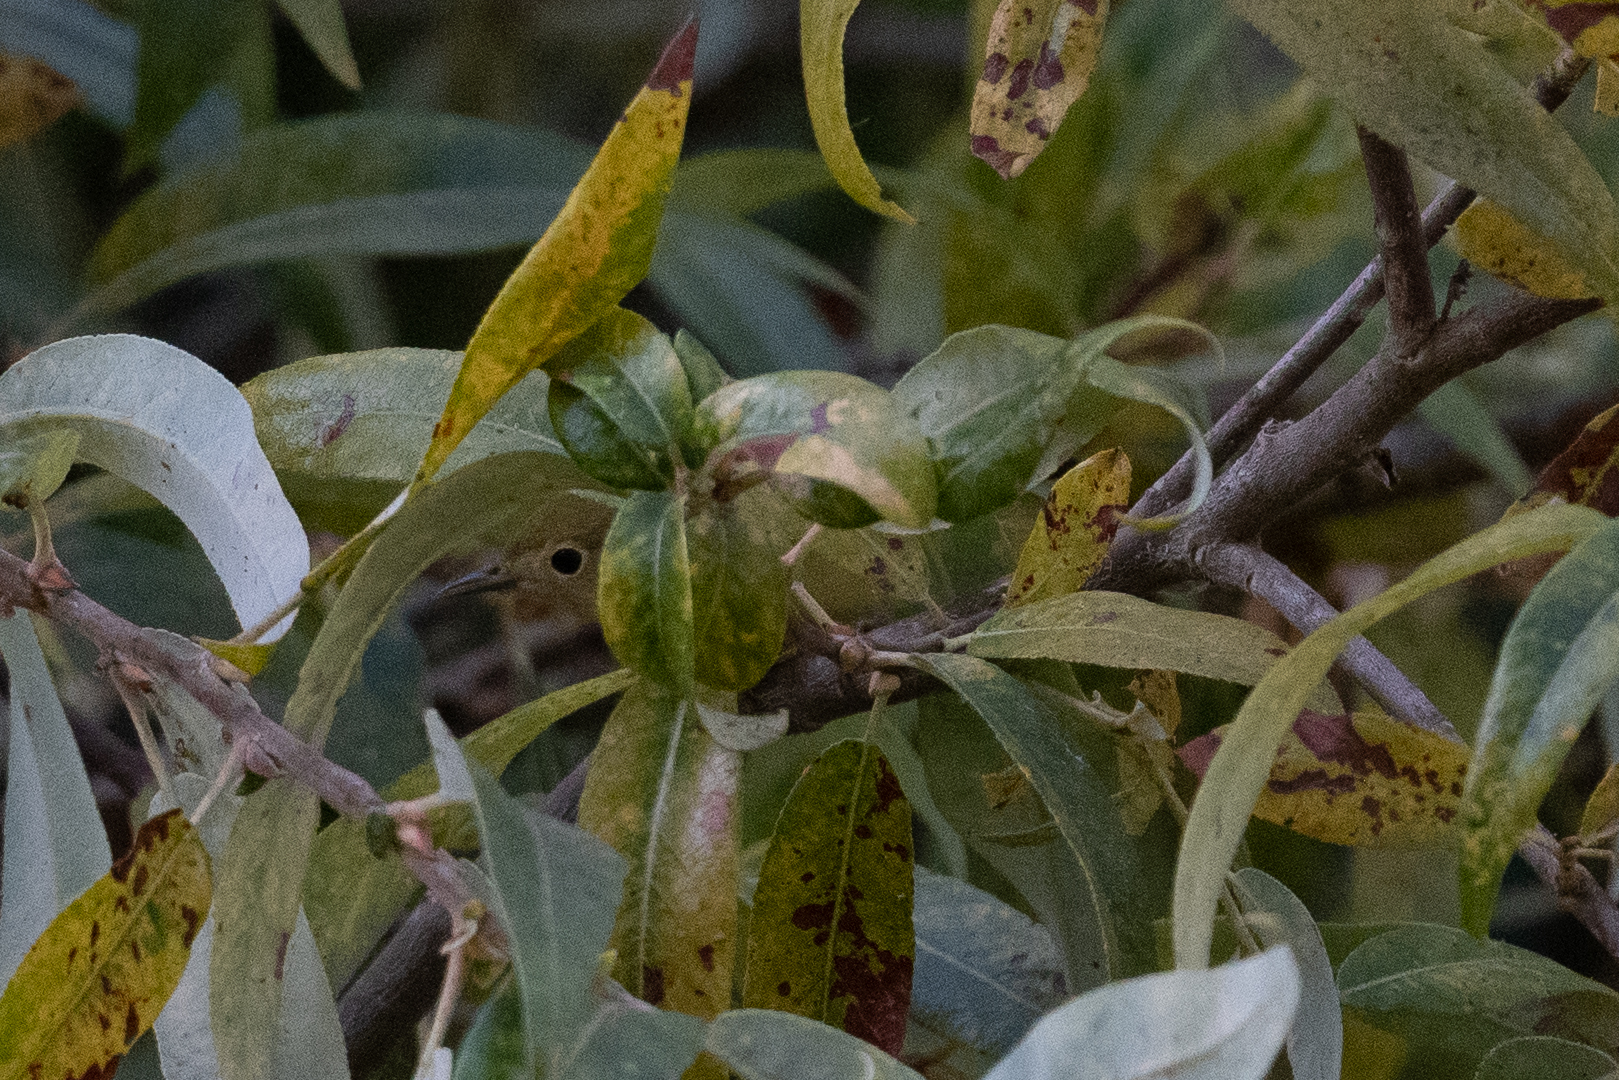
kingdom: Animalia
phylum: Chordata
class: Aves
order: Passeriformes
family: Parulidae
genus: Setophaga
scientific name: Setophaga petechia
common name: Yellow warbler
